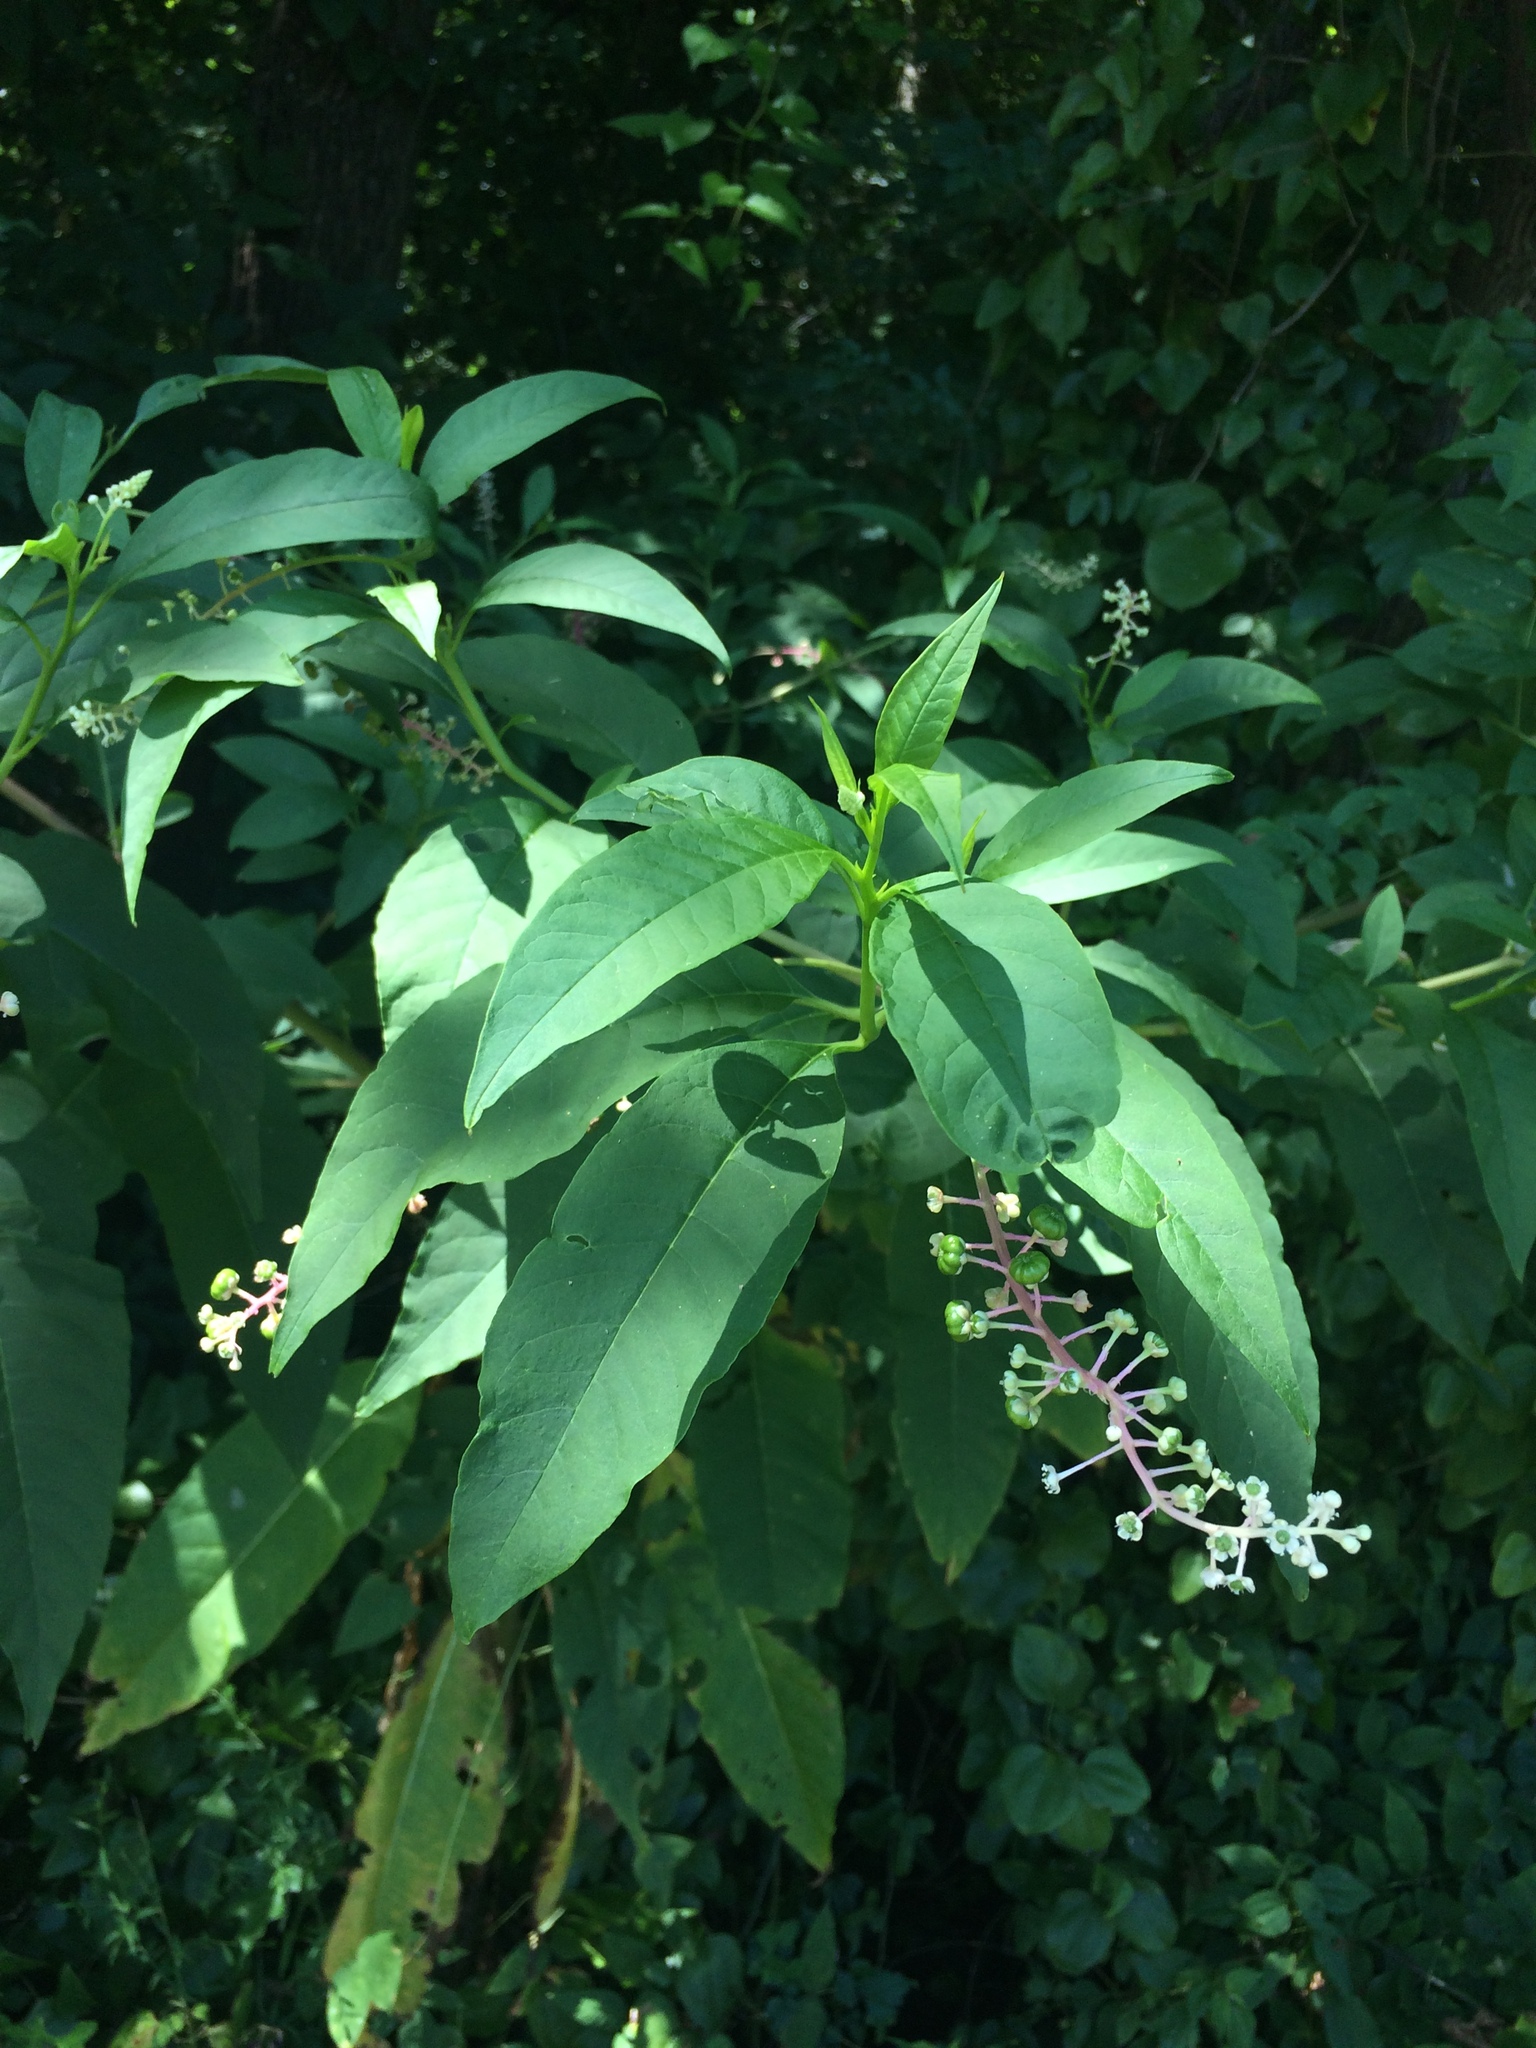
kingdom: Plantae
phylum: Tracheophyta
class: Magnoliopsida
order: Caryophyllales
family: Phytolaccaceae
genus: Phytolacca
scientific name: Phytolacca americana
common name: American pokeweed
